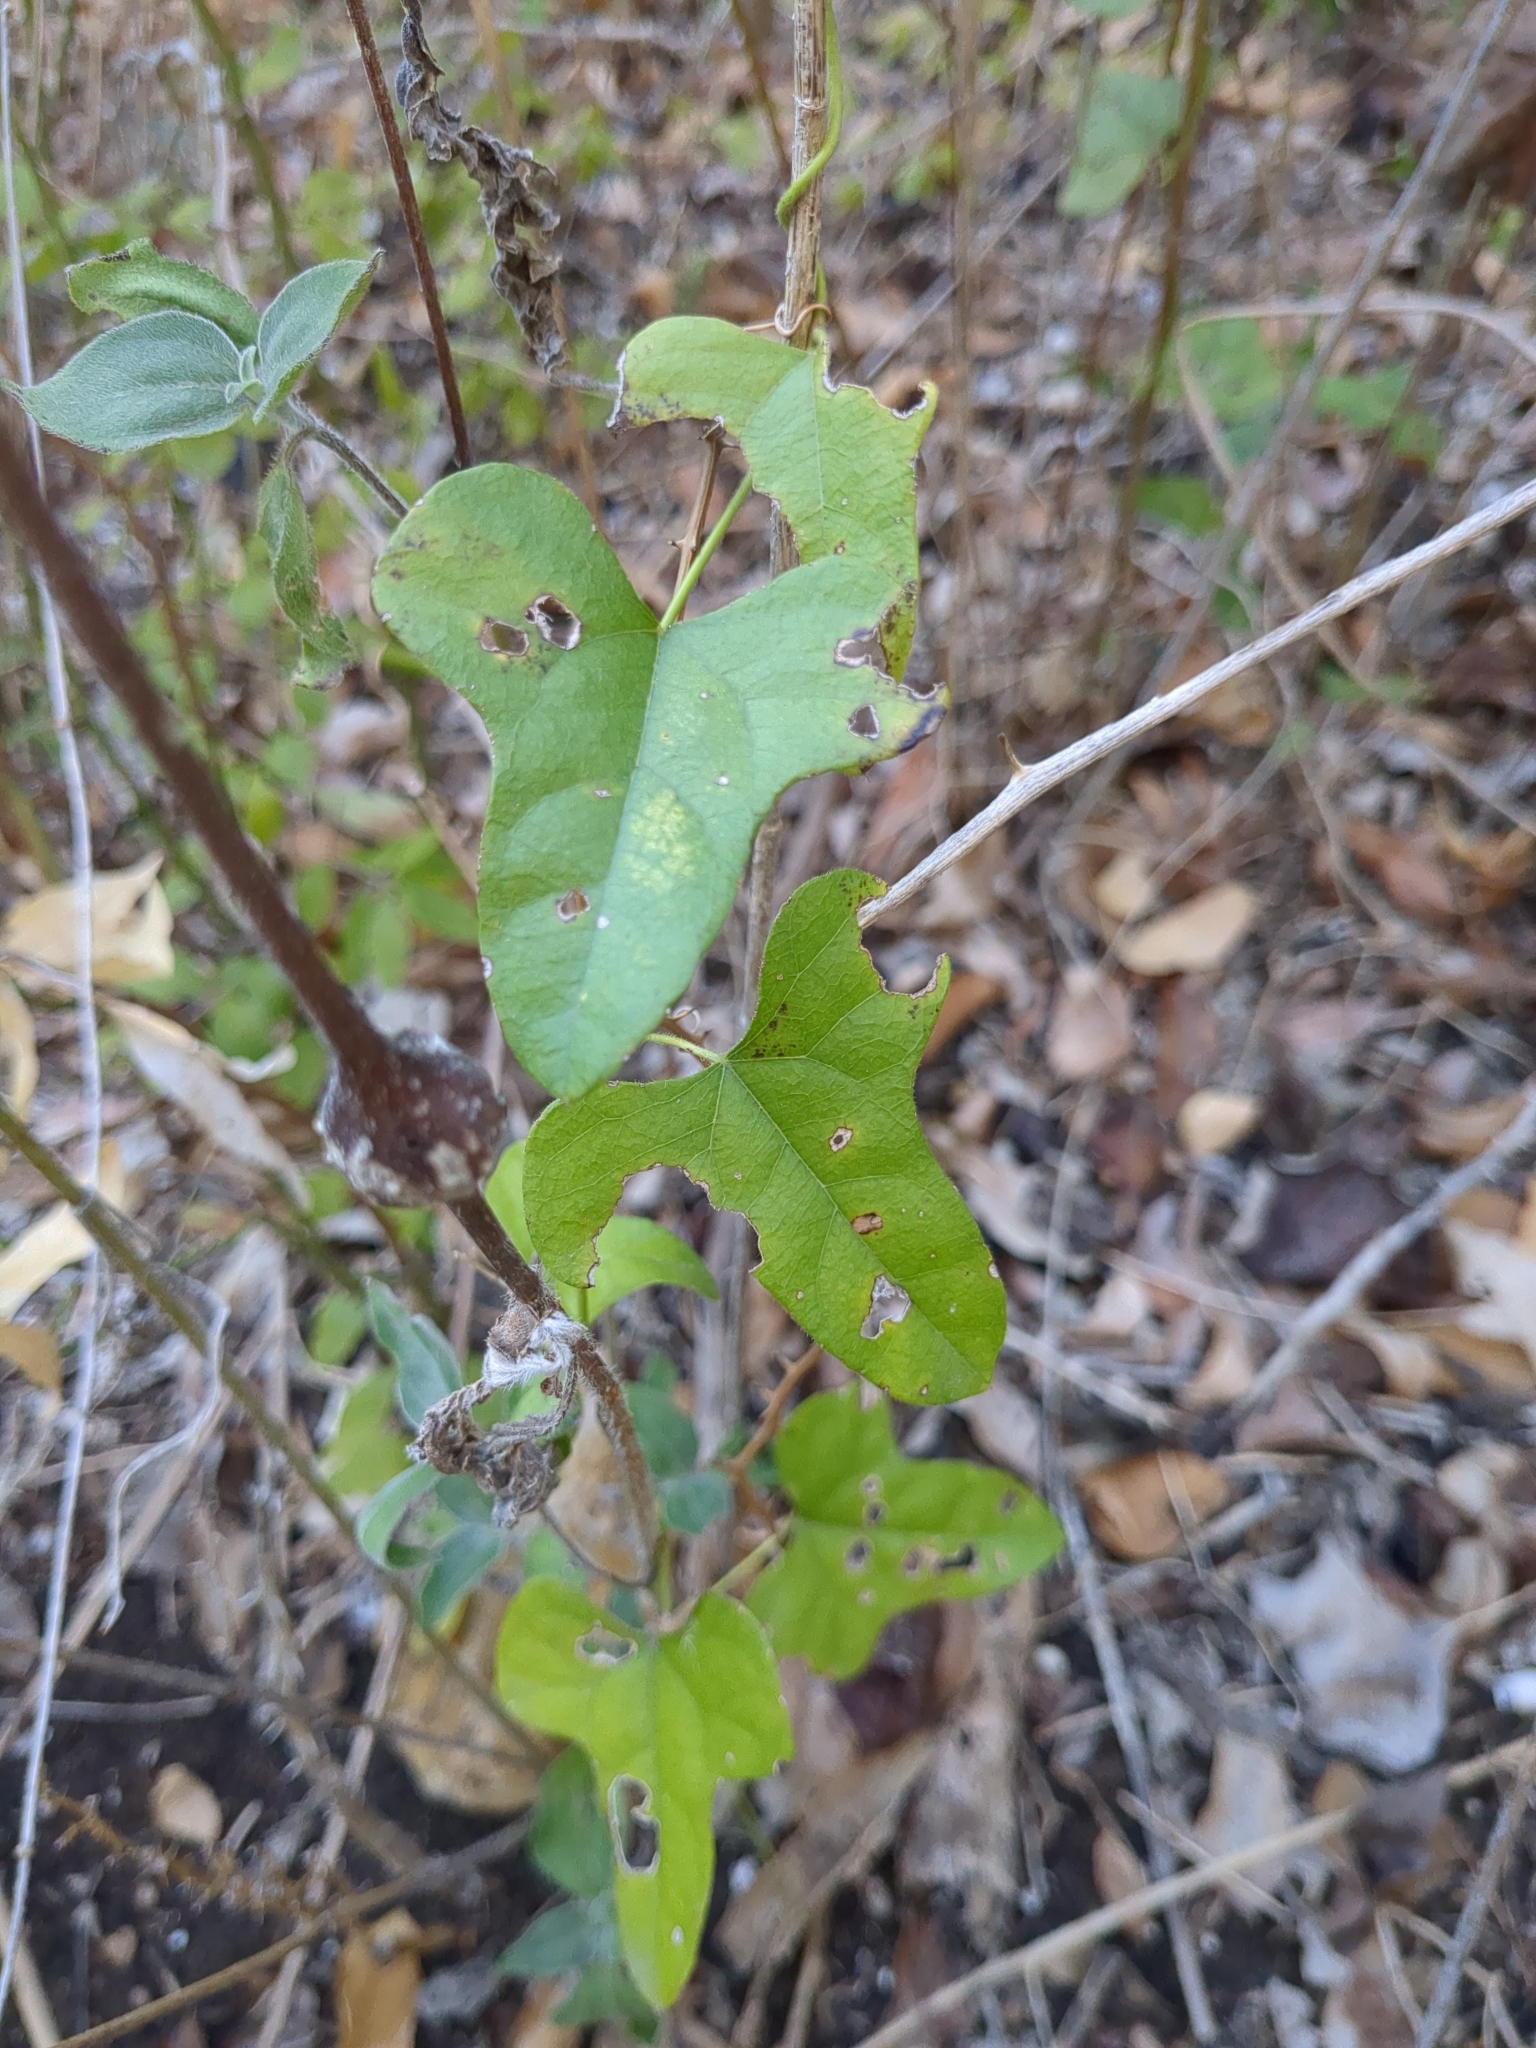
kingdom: Plantae
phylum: Tracheophyta
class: Magnoliopsida
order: Ranunculales
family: Menispermaceae
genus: Cocculus
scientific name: Cocculus carolinus
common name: Carolina moonseed
